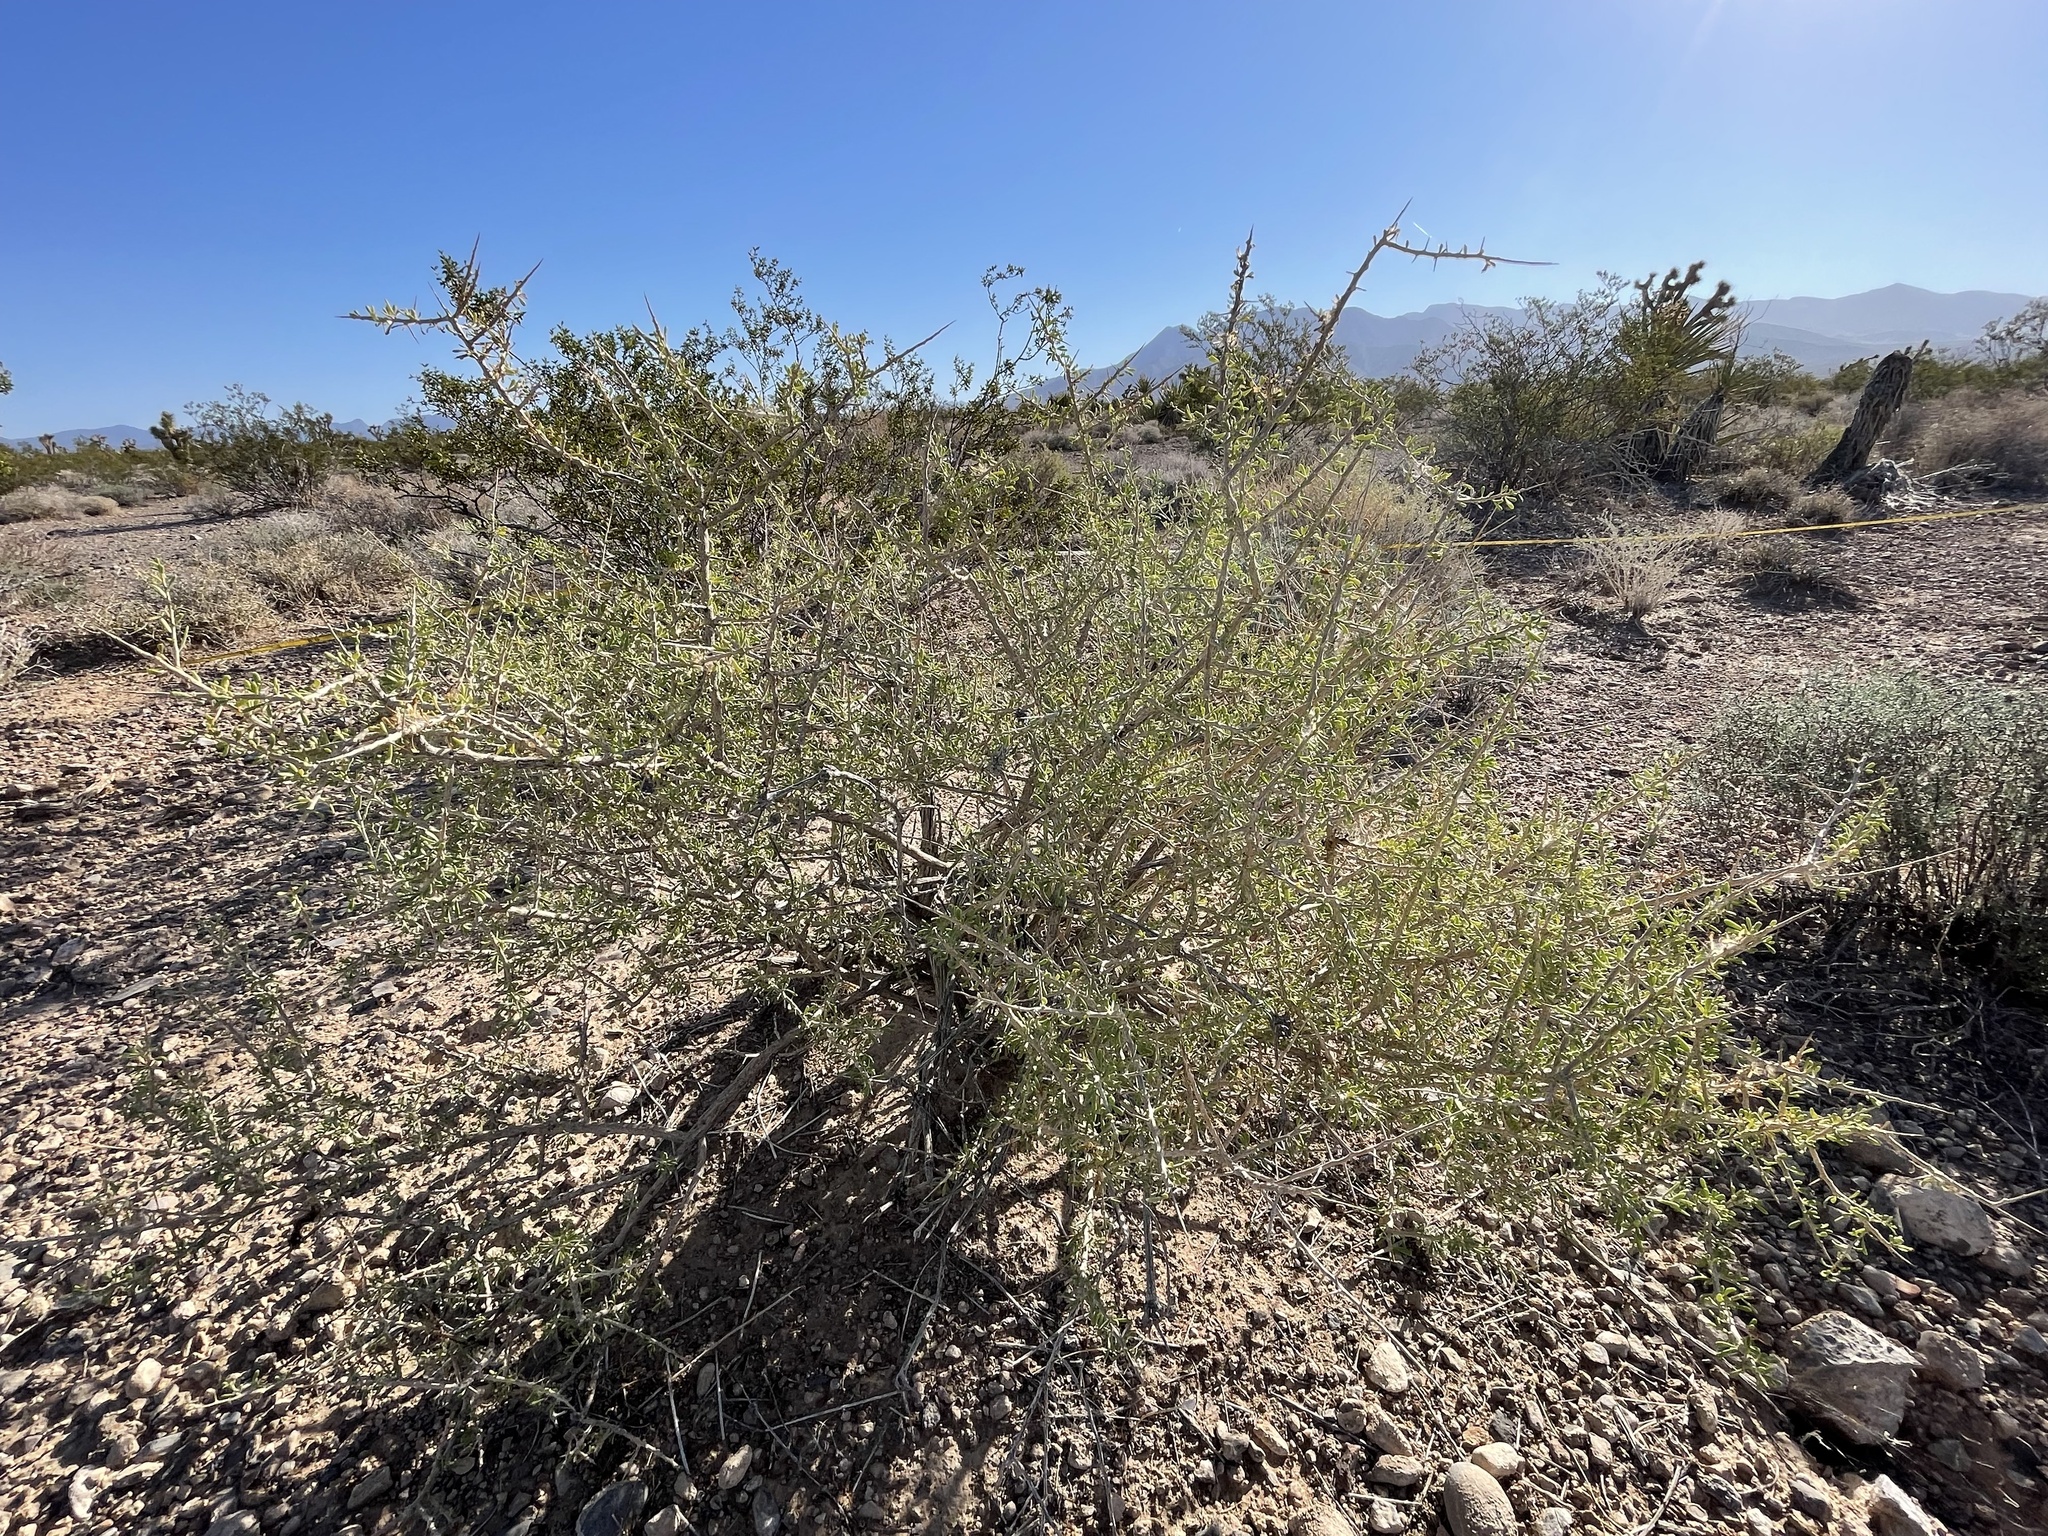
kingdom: Plantae
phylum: Tracheophyta
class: Magnoliopsida
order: Solanales
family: Solanaceae
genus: Lycium
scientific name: Lycium andersonii
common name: Water-jacket
